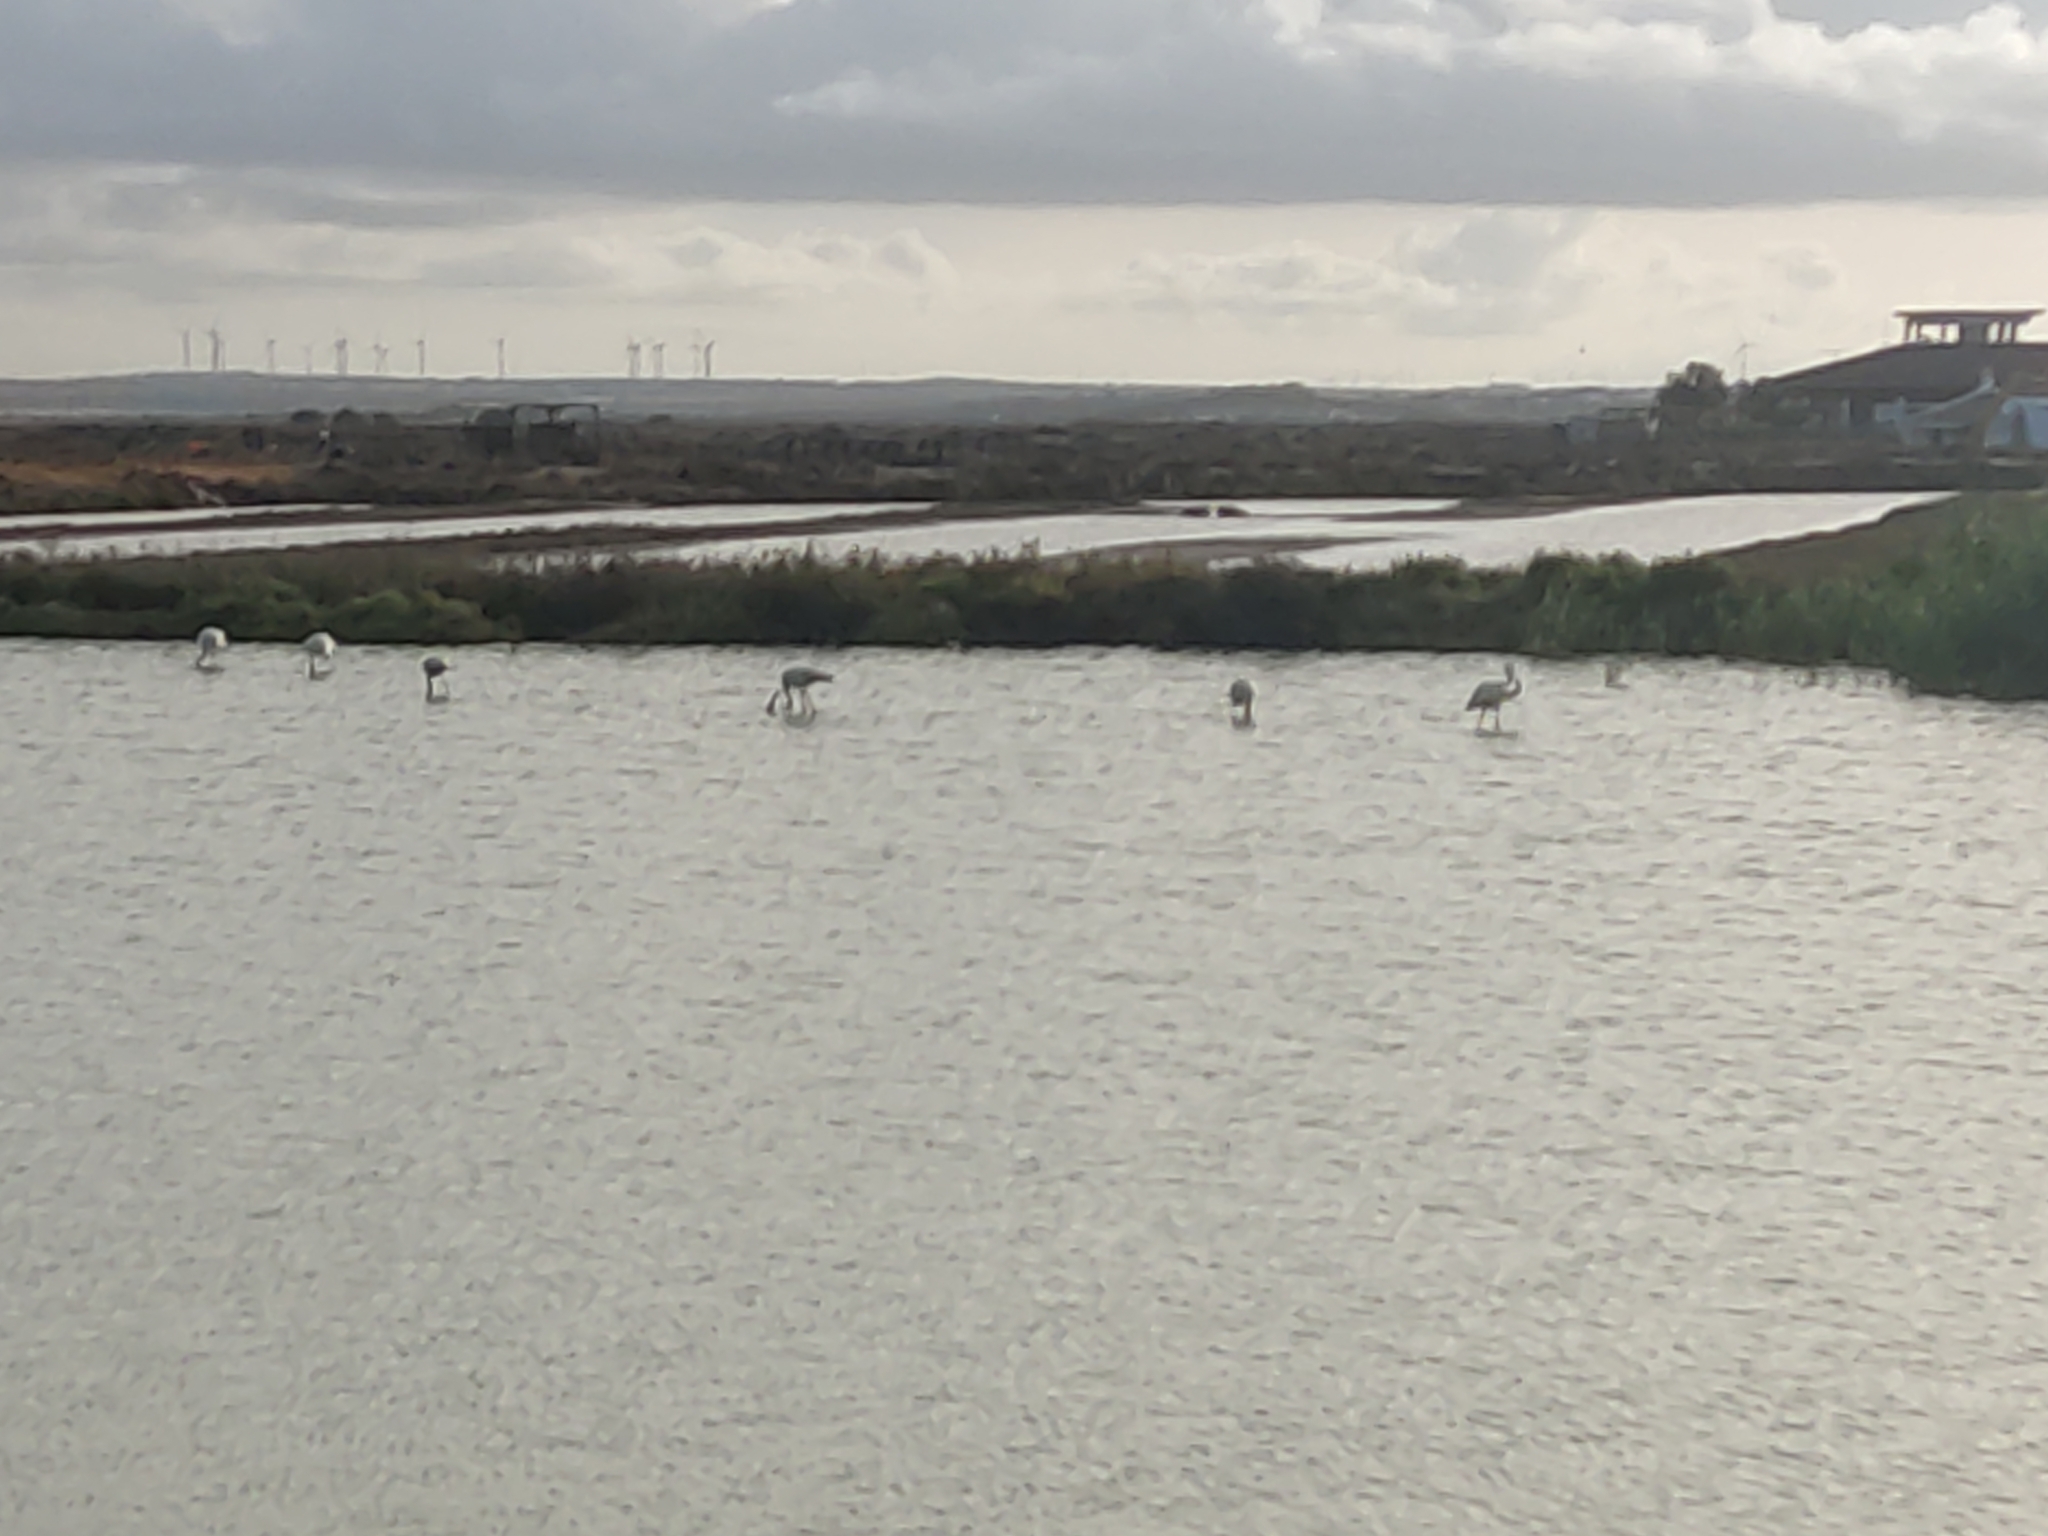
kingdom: Animalia
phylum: Chordata
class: Aves
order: Phoenicopteriformes
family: Phoenicopteridae
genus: Phoenicopterus
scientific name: Phoenicopterus roseus
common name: Greater flamingo
